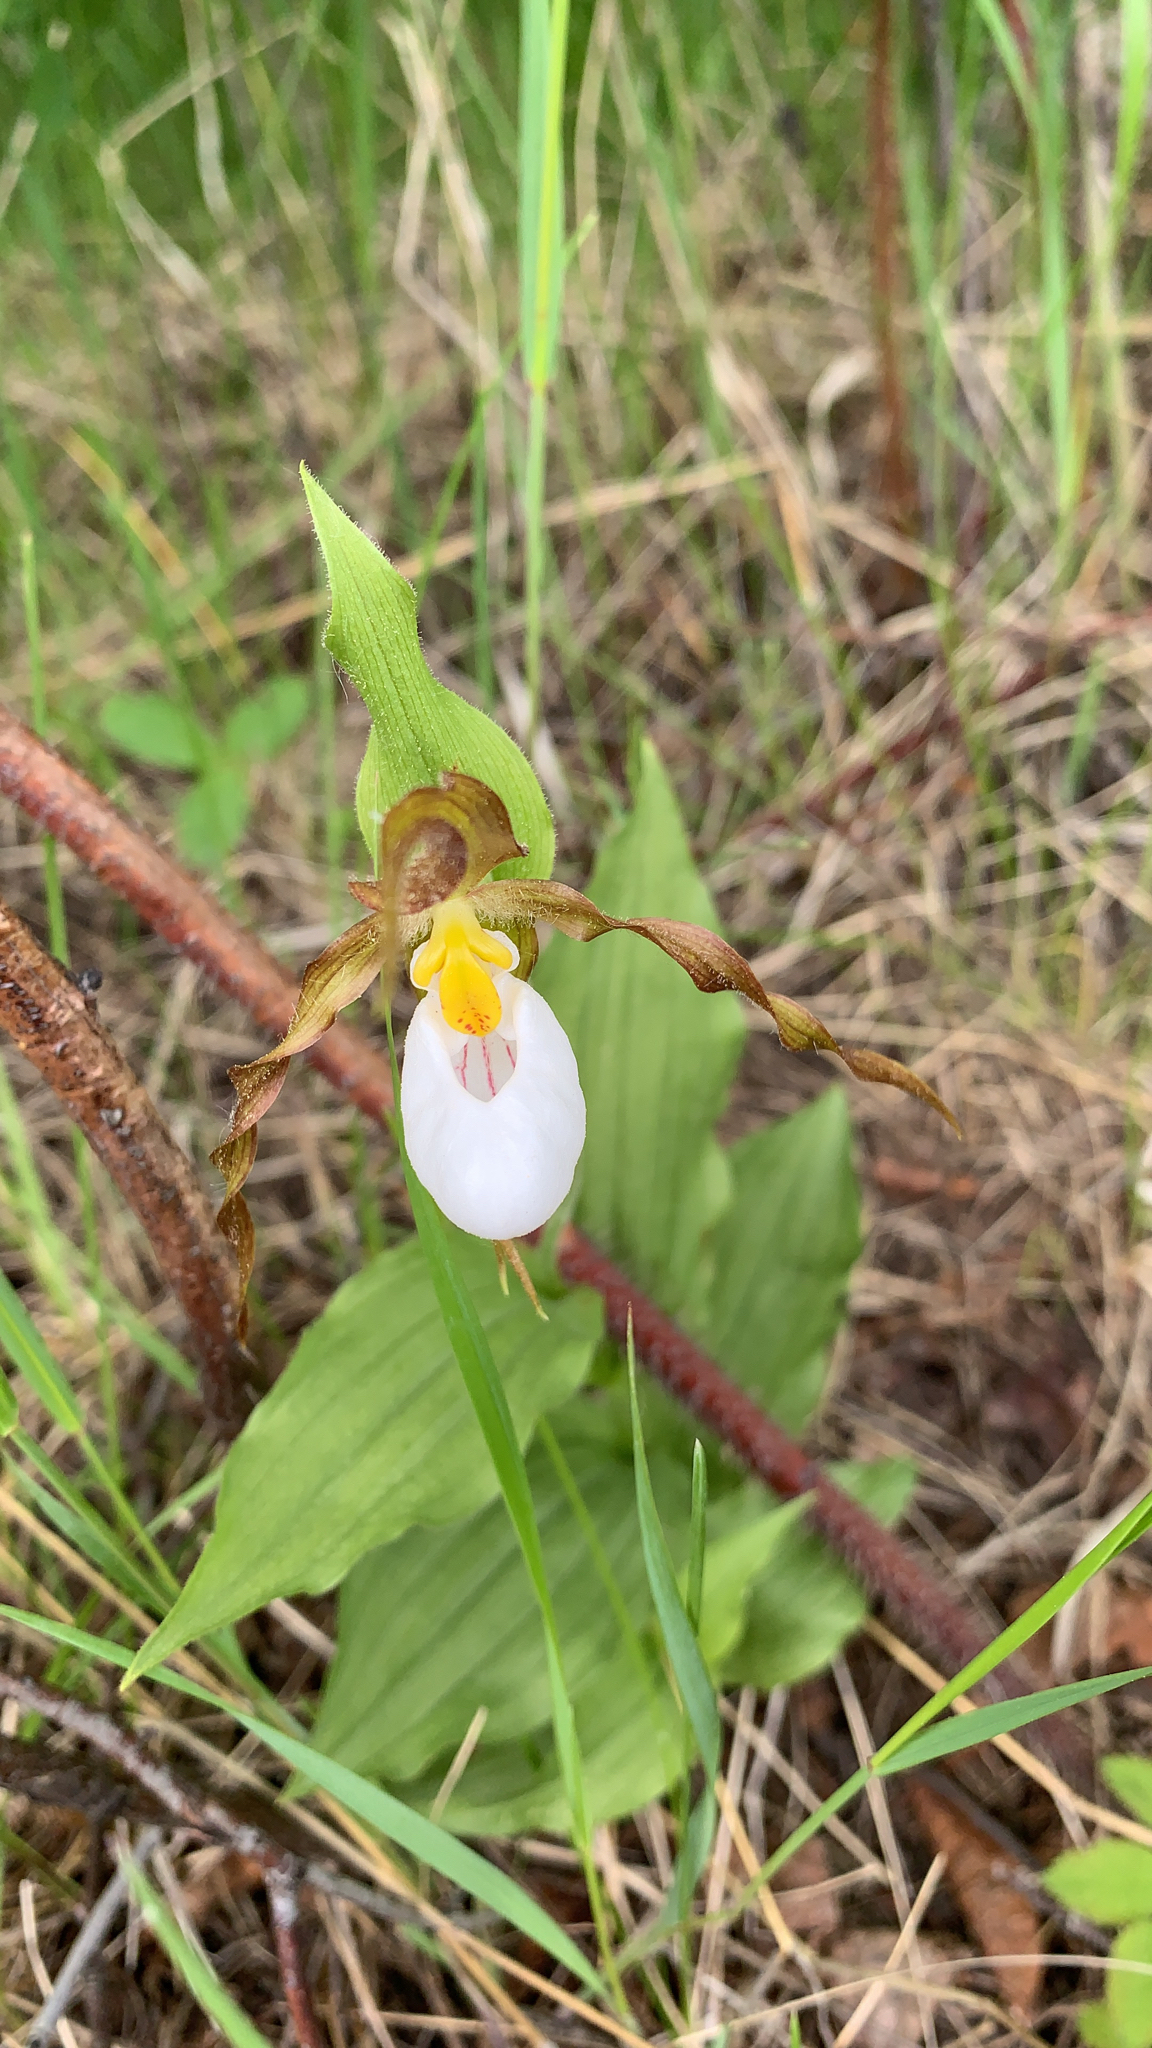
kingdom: Plantae
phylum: Tracheophyta
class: Liliopsida
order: Asparagales
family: Orchidaceae
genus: Cypripedium
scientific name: Cypripedium montanum
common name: Mountain lady's-slipper
